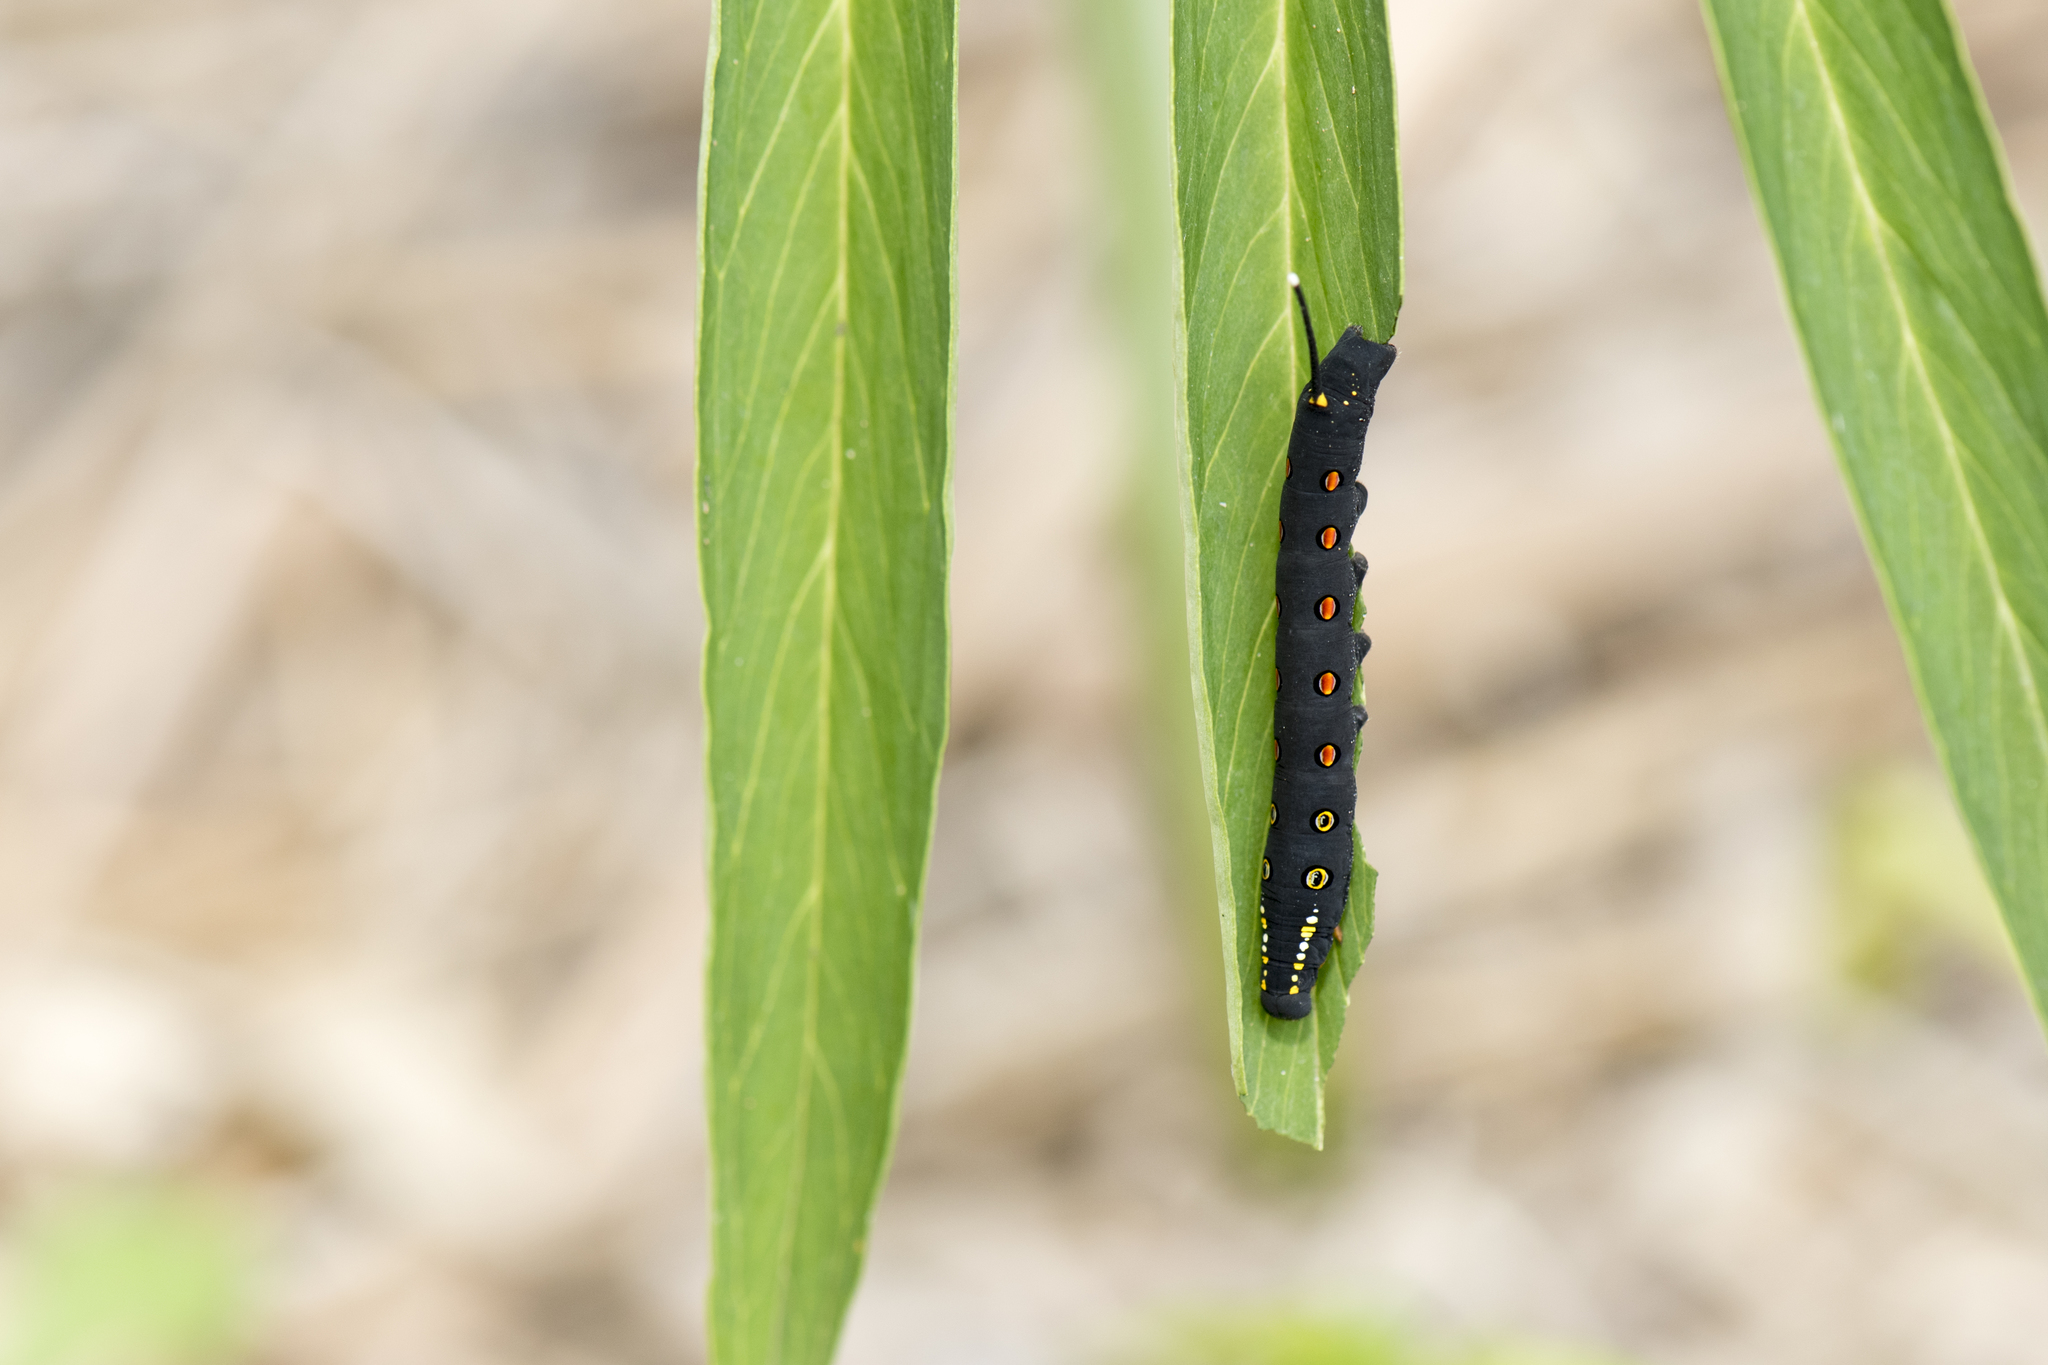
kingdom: Animalia
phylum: Arthropoda
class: Insecta
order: Lepidoptera
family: Sphingidae
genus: Theretra
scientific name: Theretra oldenlandiae
